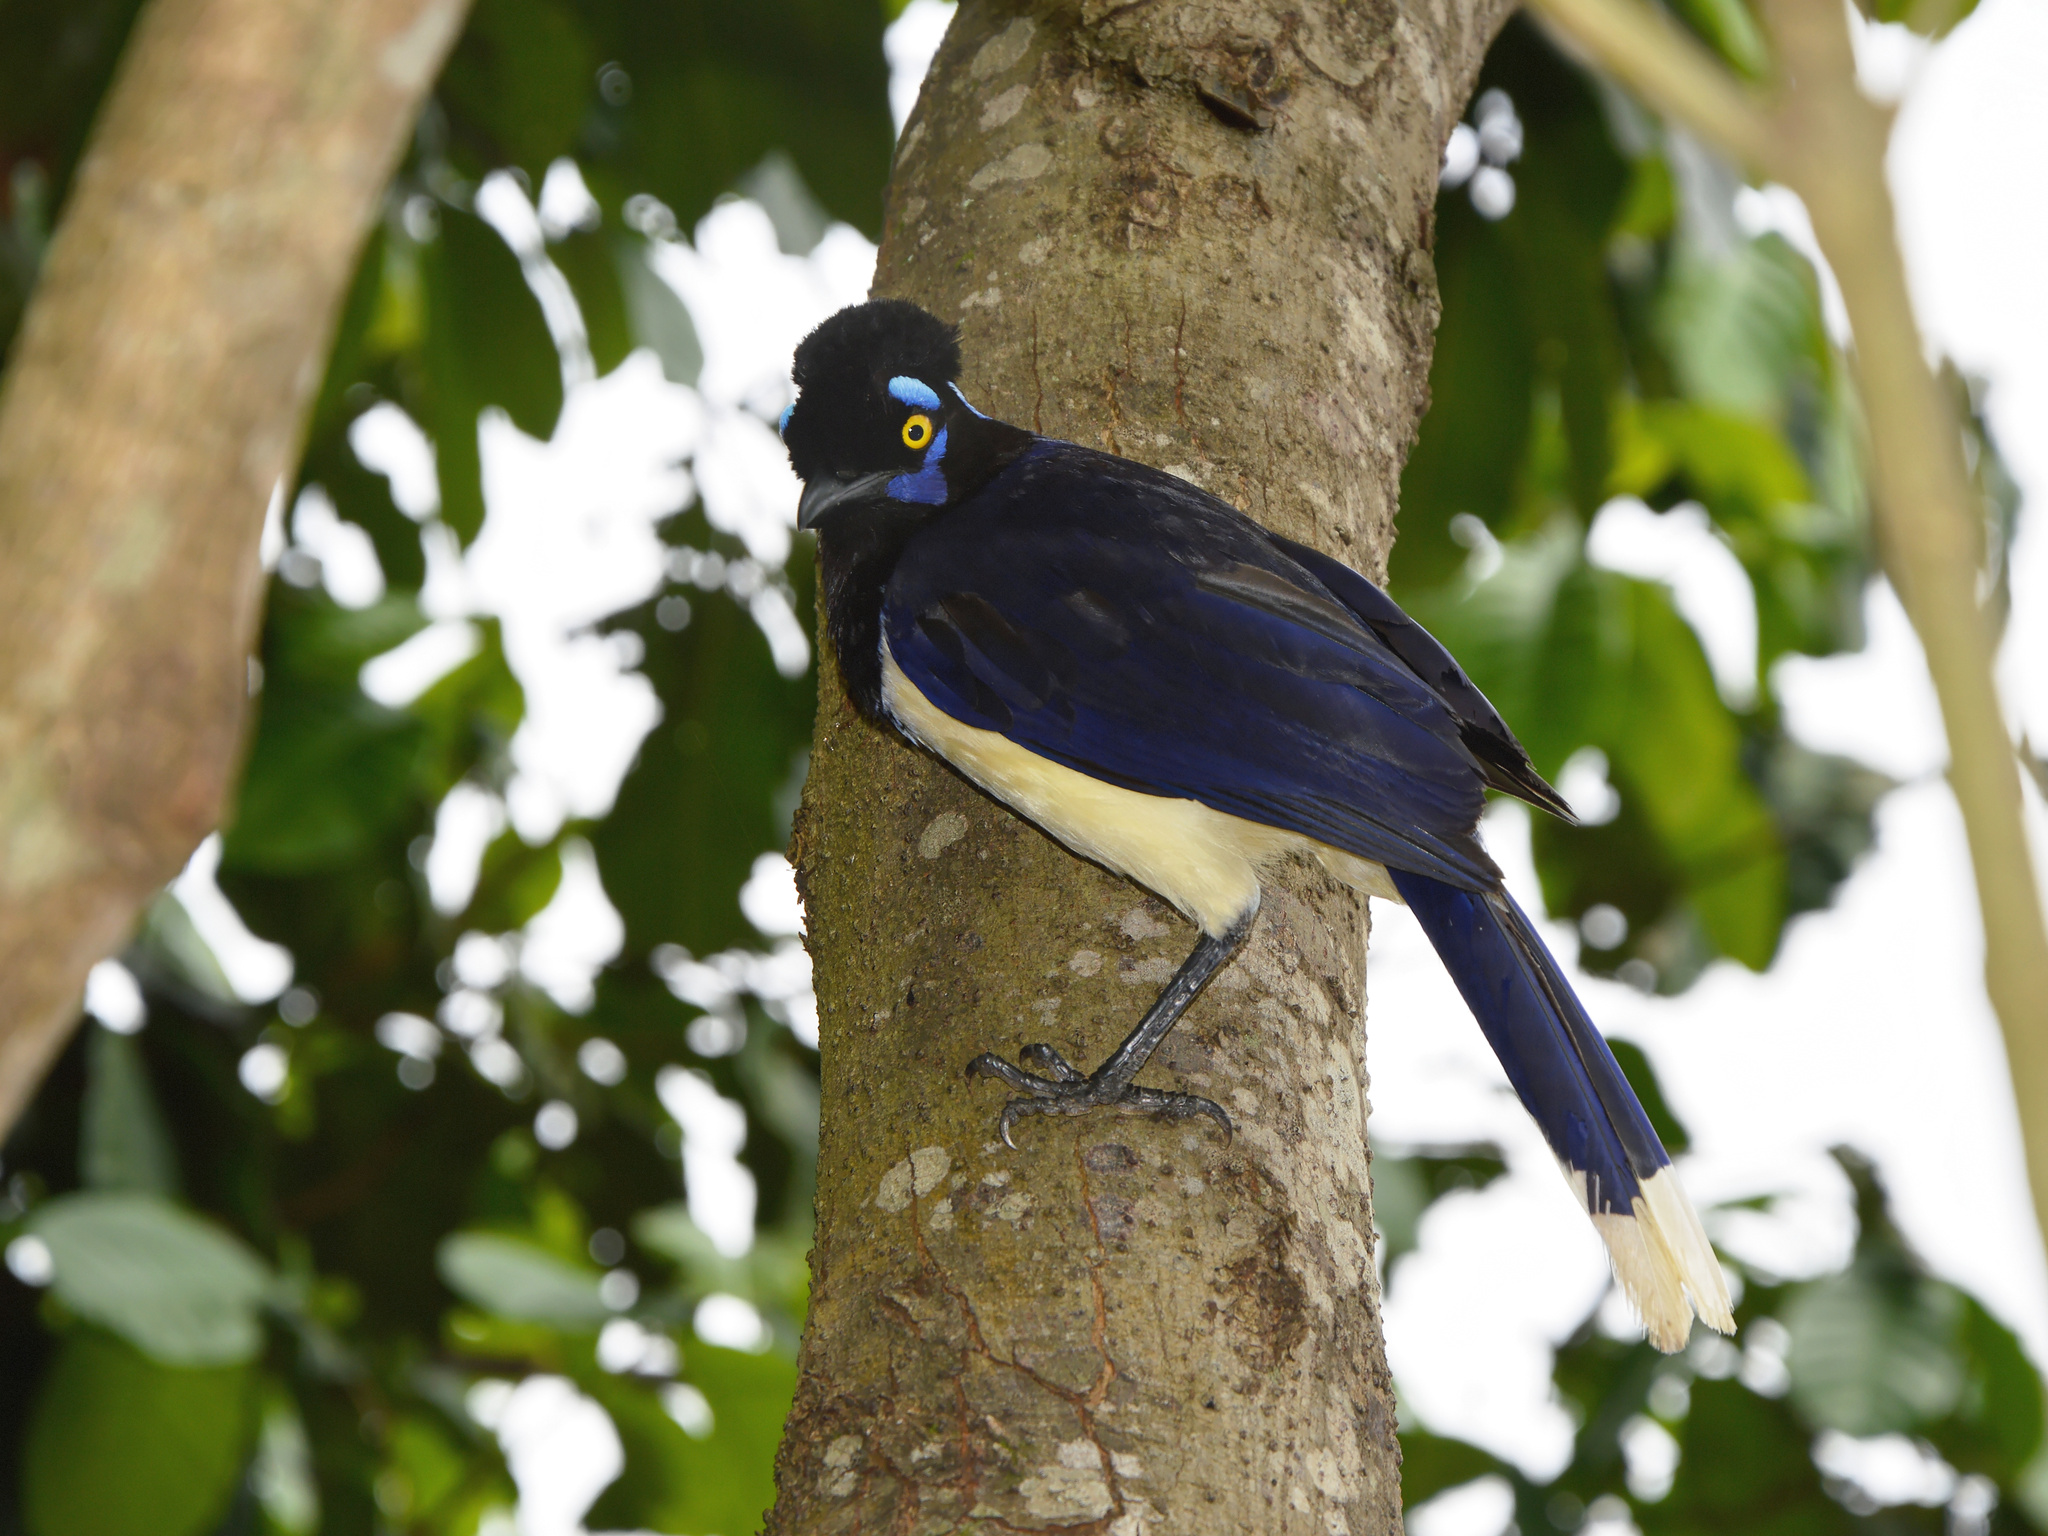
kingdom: Animalia
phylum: Chordata
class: Aves
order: Passeriformes
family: Corvidae
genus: Cyanocorax
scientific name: Cyanocorax chrysops
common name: Plush-crested jay
